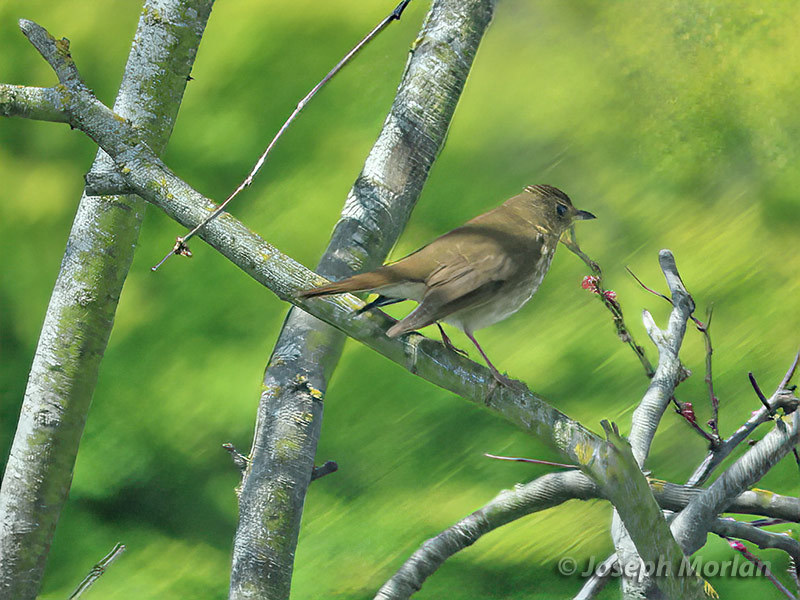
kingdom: Animalia
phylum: Chordata
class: Aves
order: Passeriformes
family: Turdidae
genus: Catharus
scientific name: Catharus ustulatus
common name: Swainson's thrush
